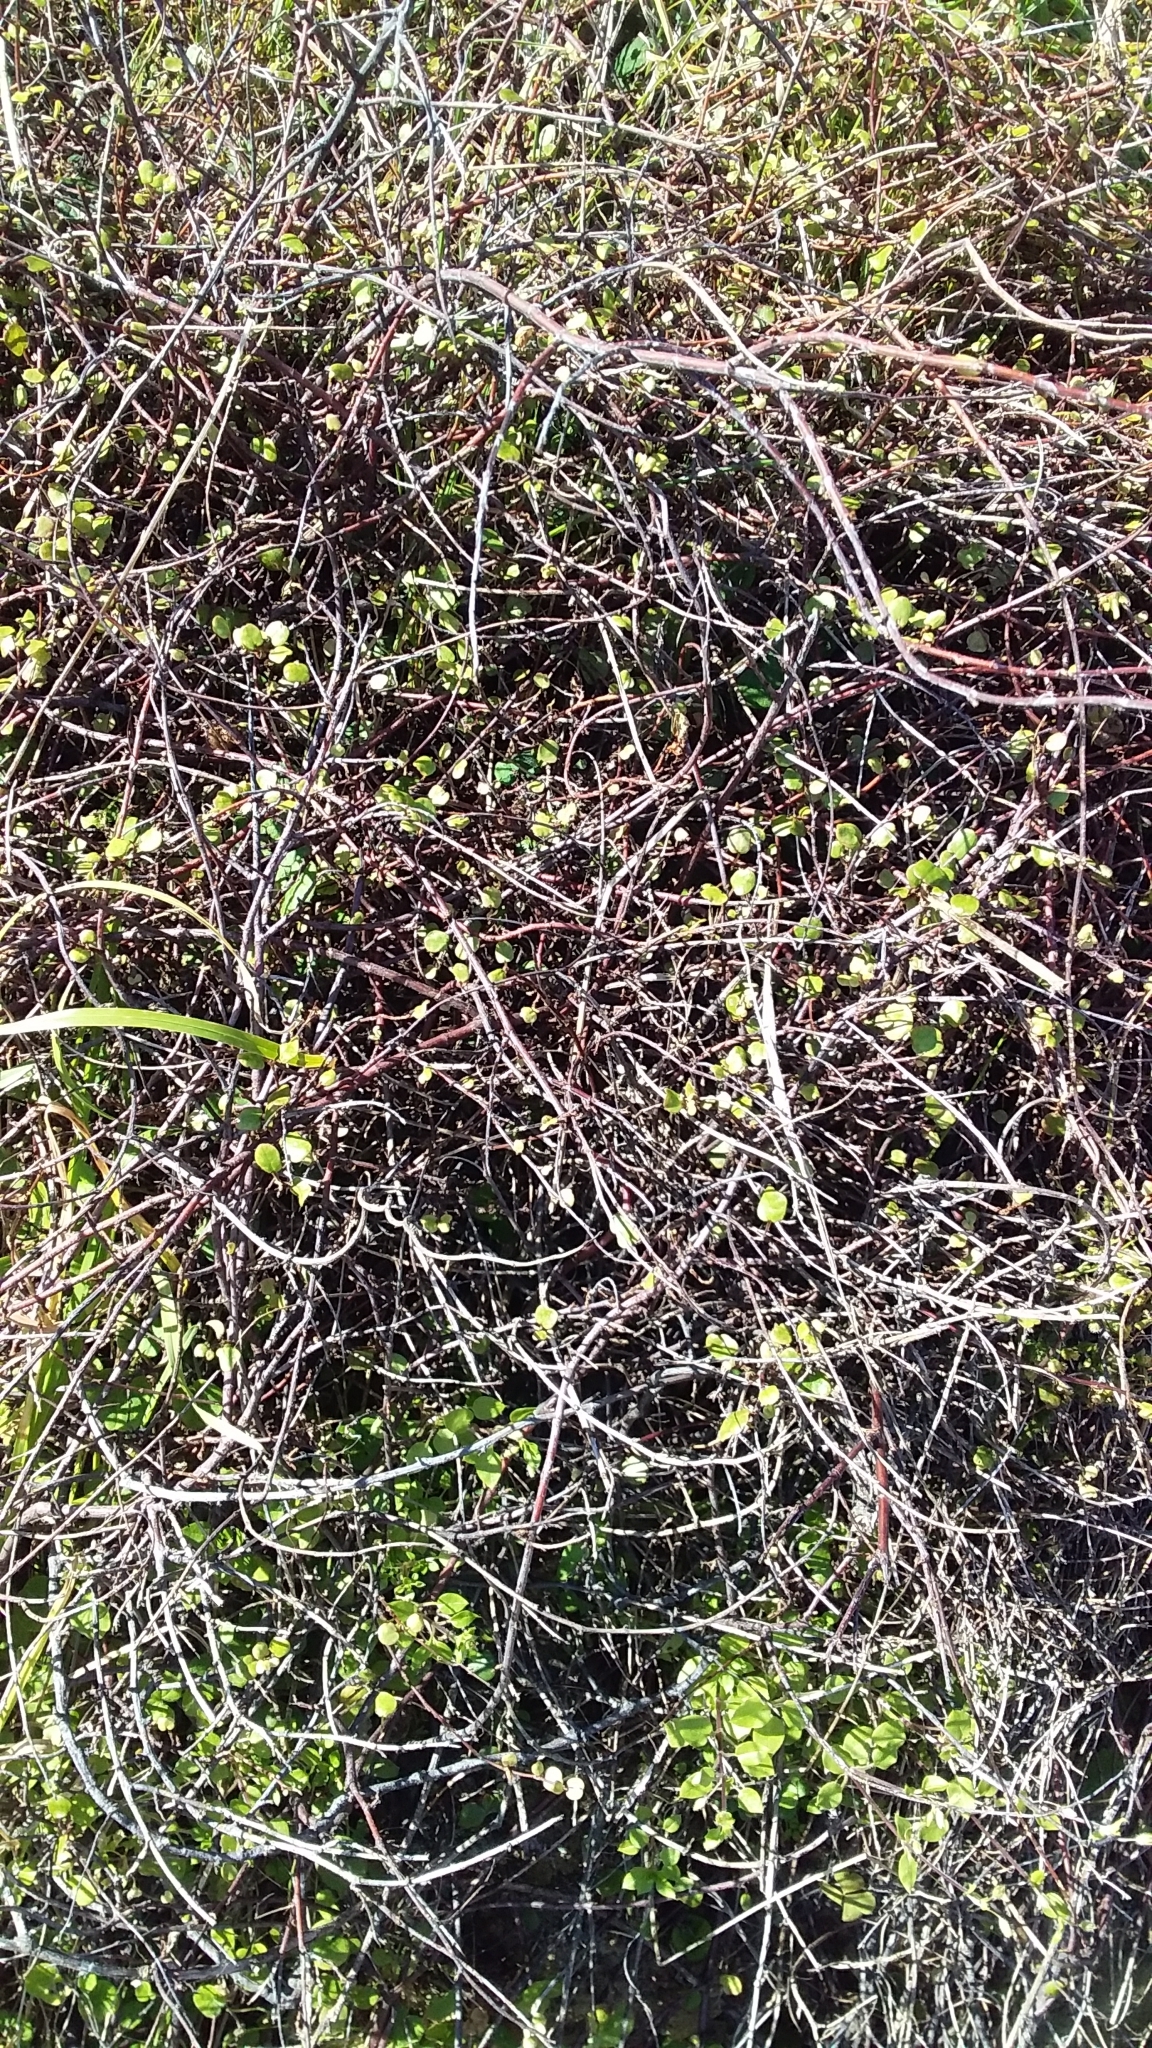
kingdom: Plantae
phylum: Tracheophyta
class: Magnoliopsida
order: Caryophyllales
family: Polygonaceae
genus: Muehlenbeckia
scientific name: Muehlenbeckia complexa
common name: Wireplant
